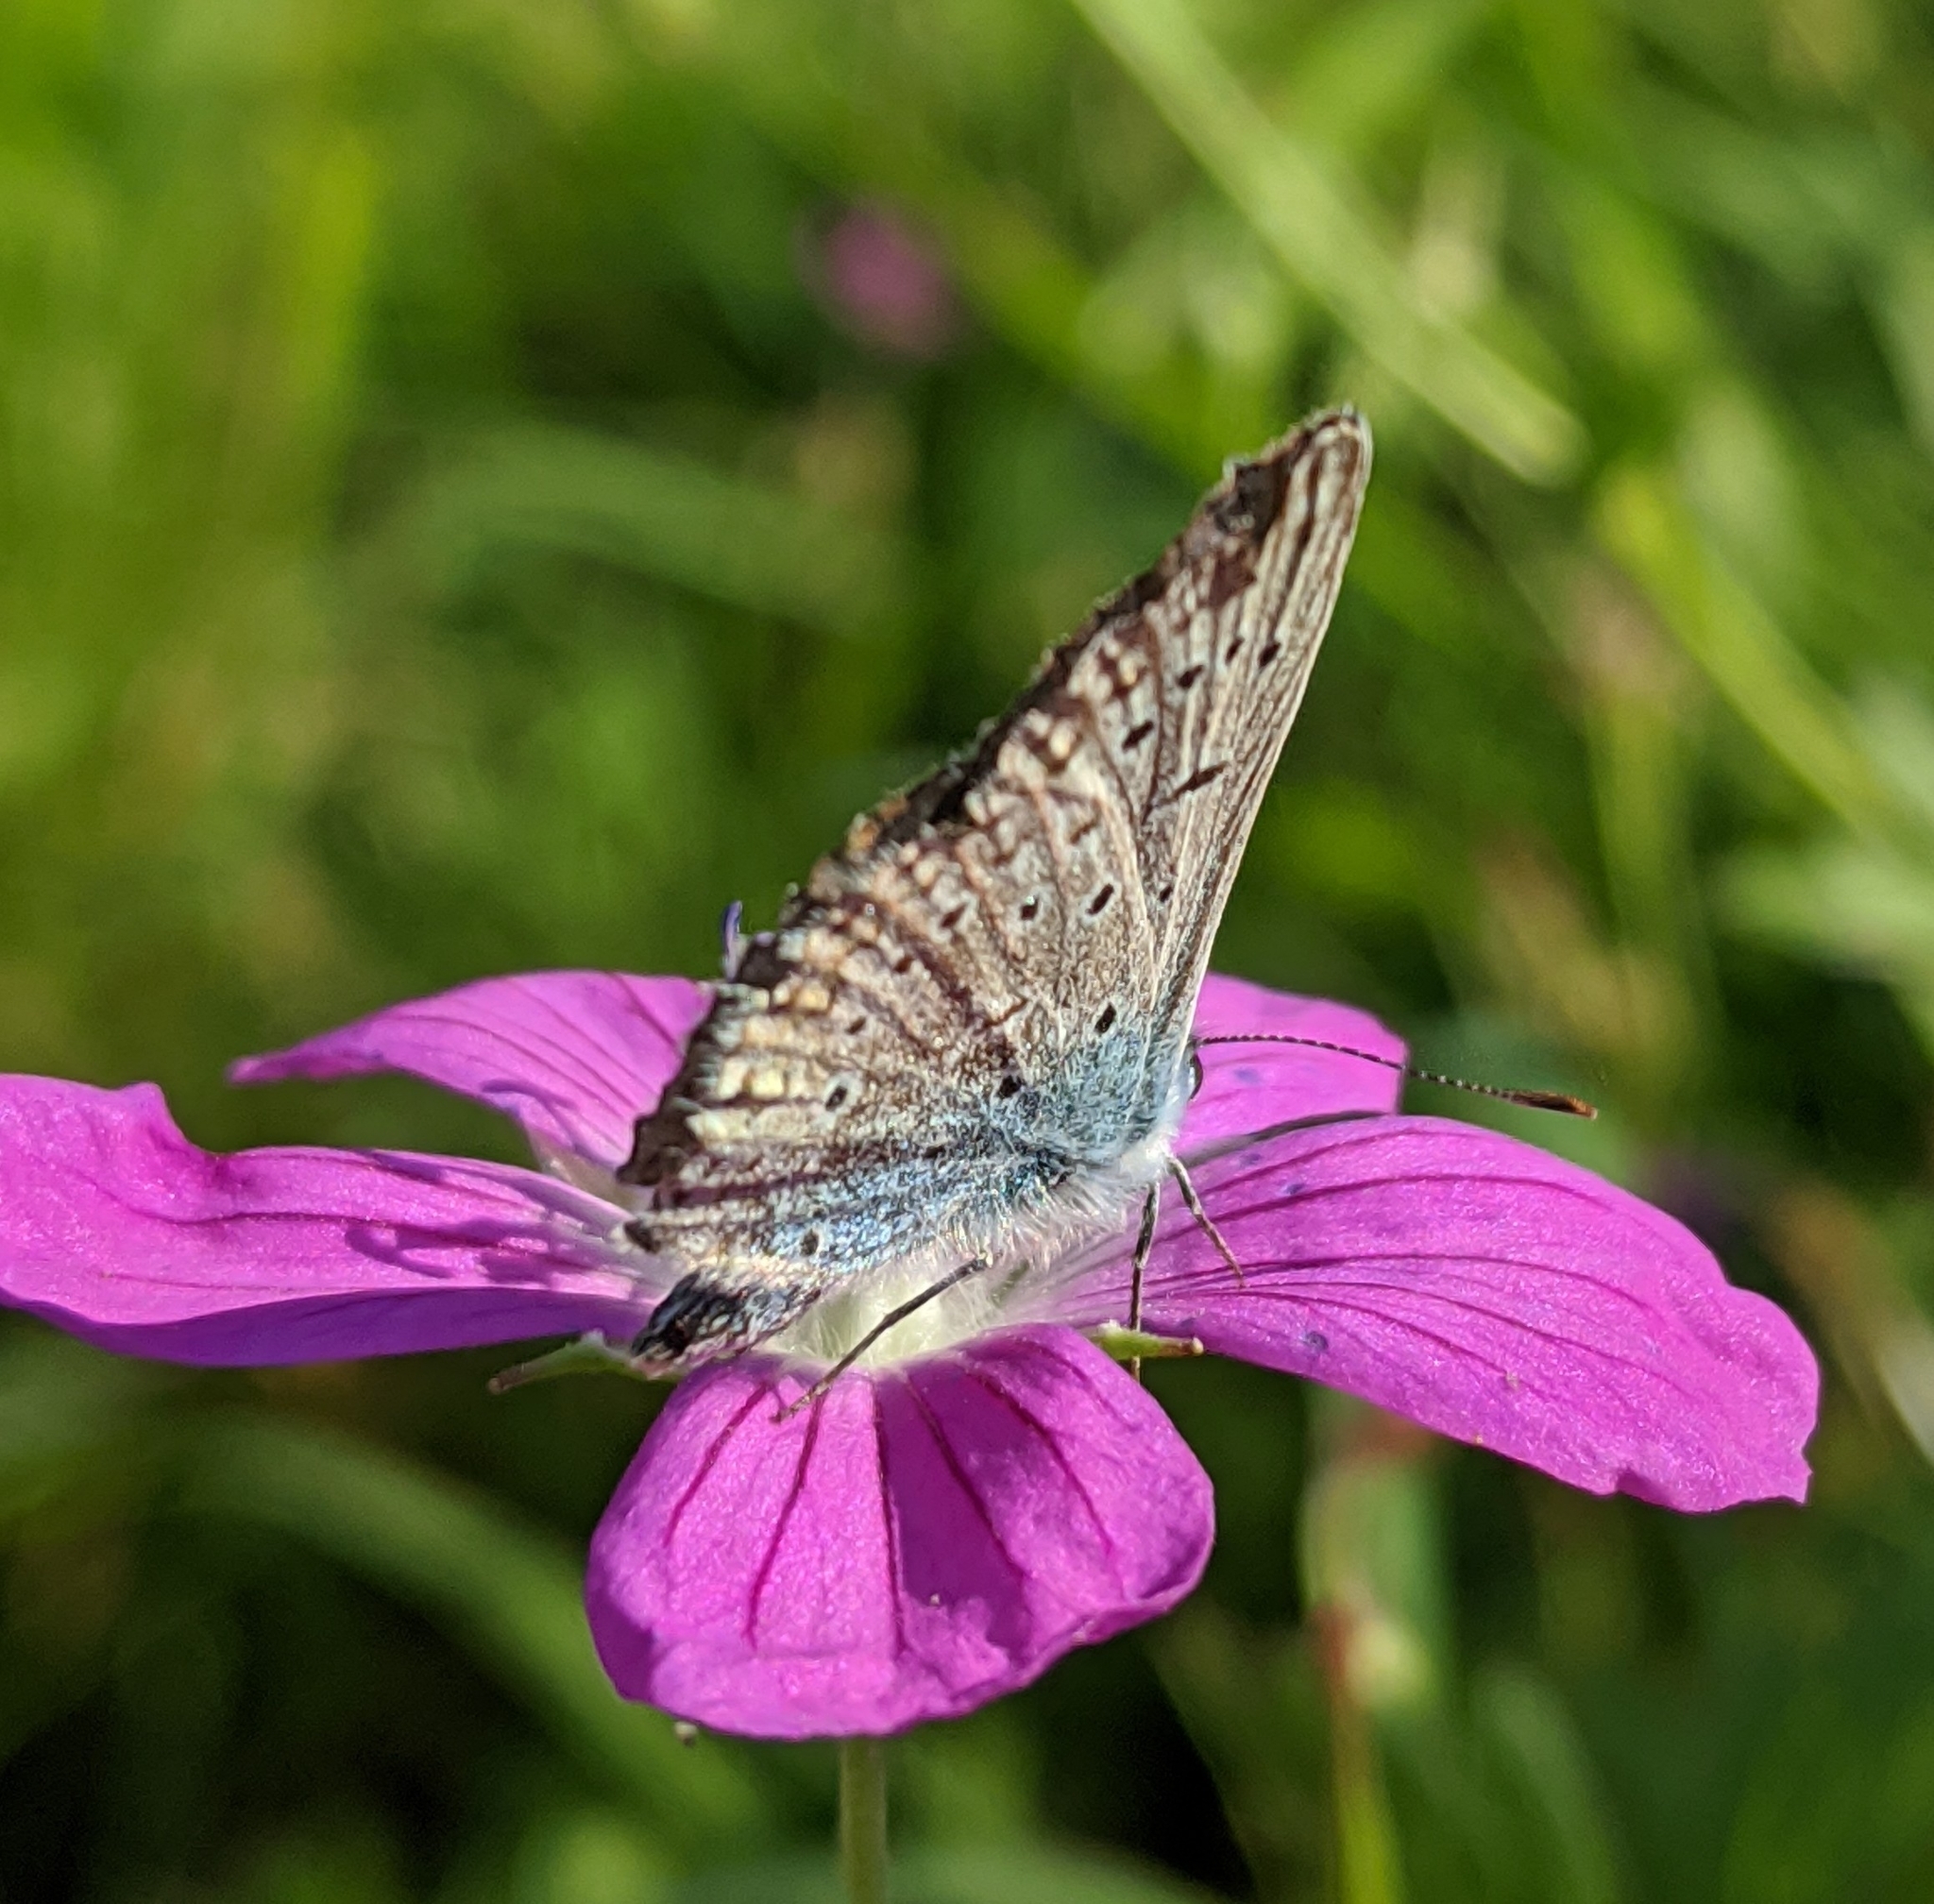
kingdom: Animalia
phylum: Arthropoda
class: Insecta
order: Lepidoptera
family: Lycaenidae
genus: Polyommatus
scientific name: Polyommatus icarus
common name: Common blue
